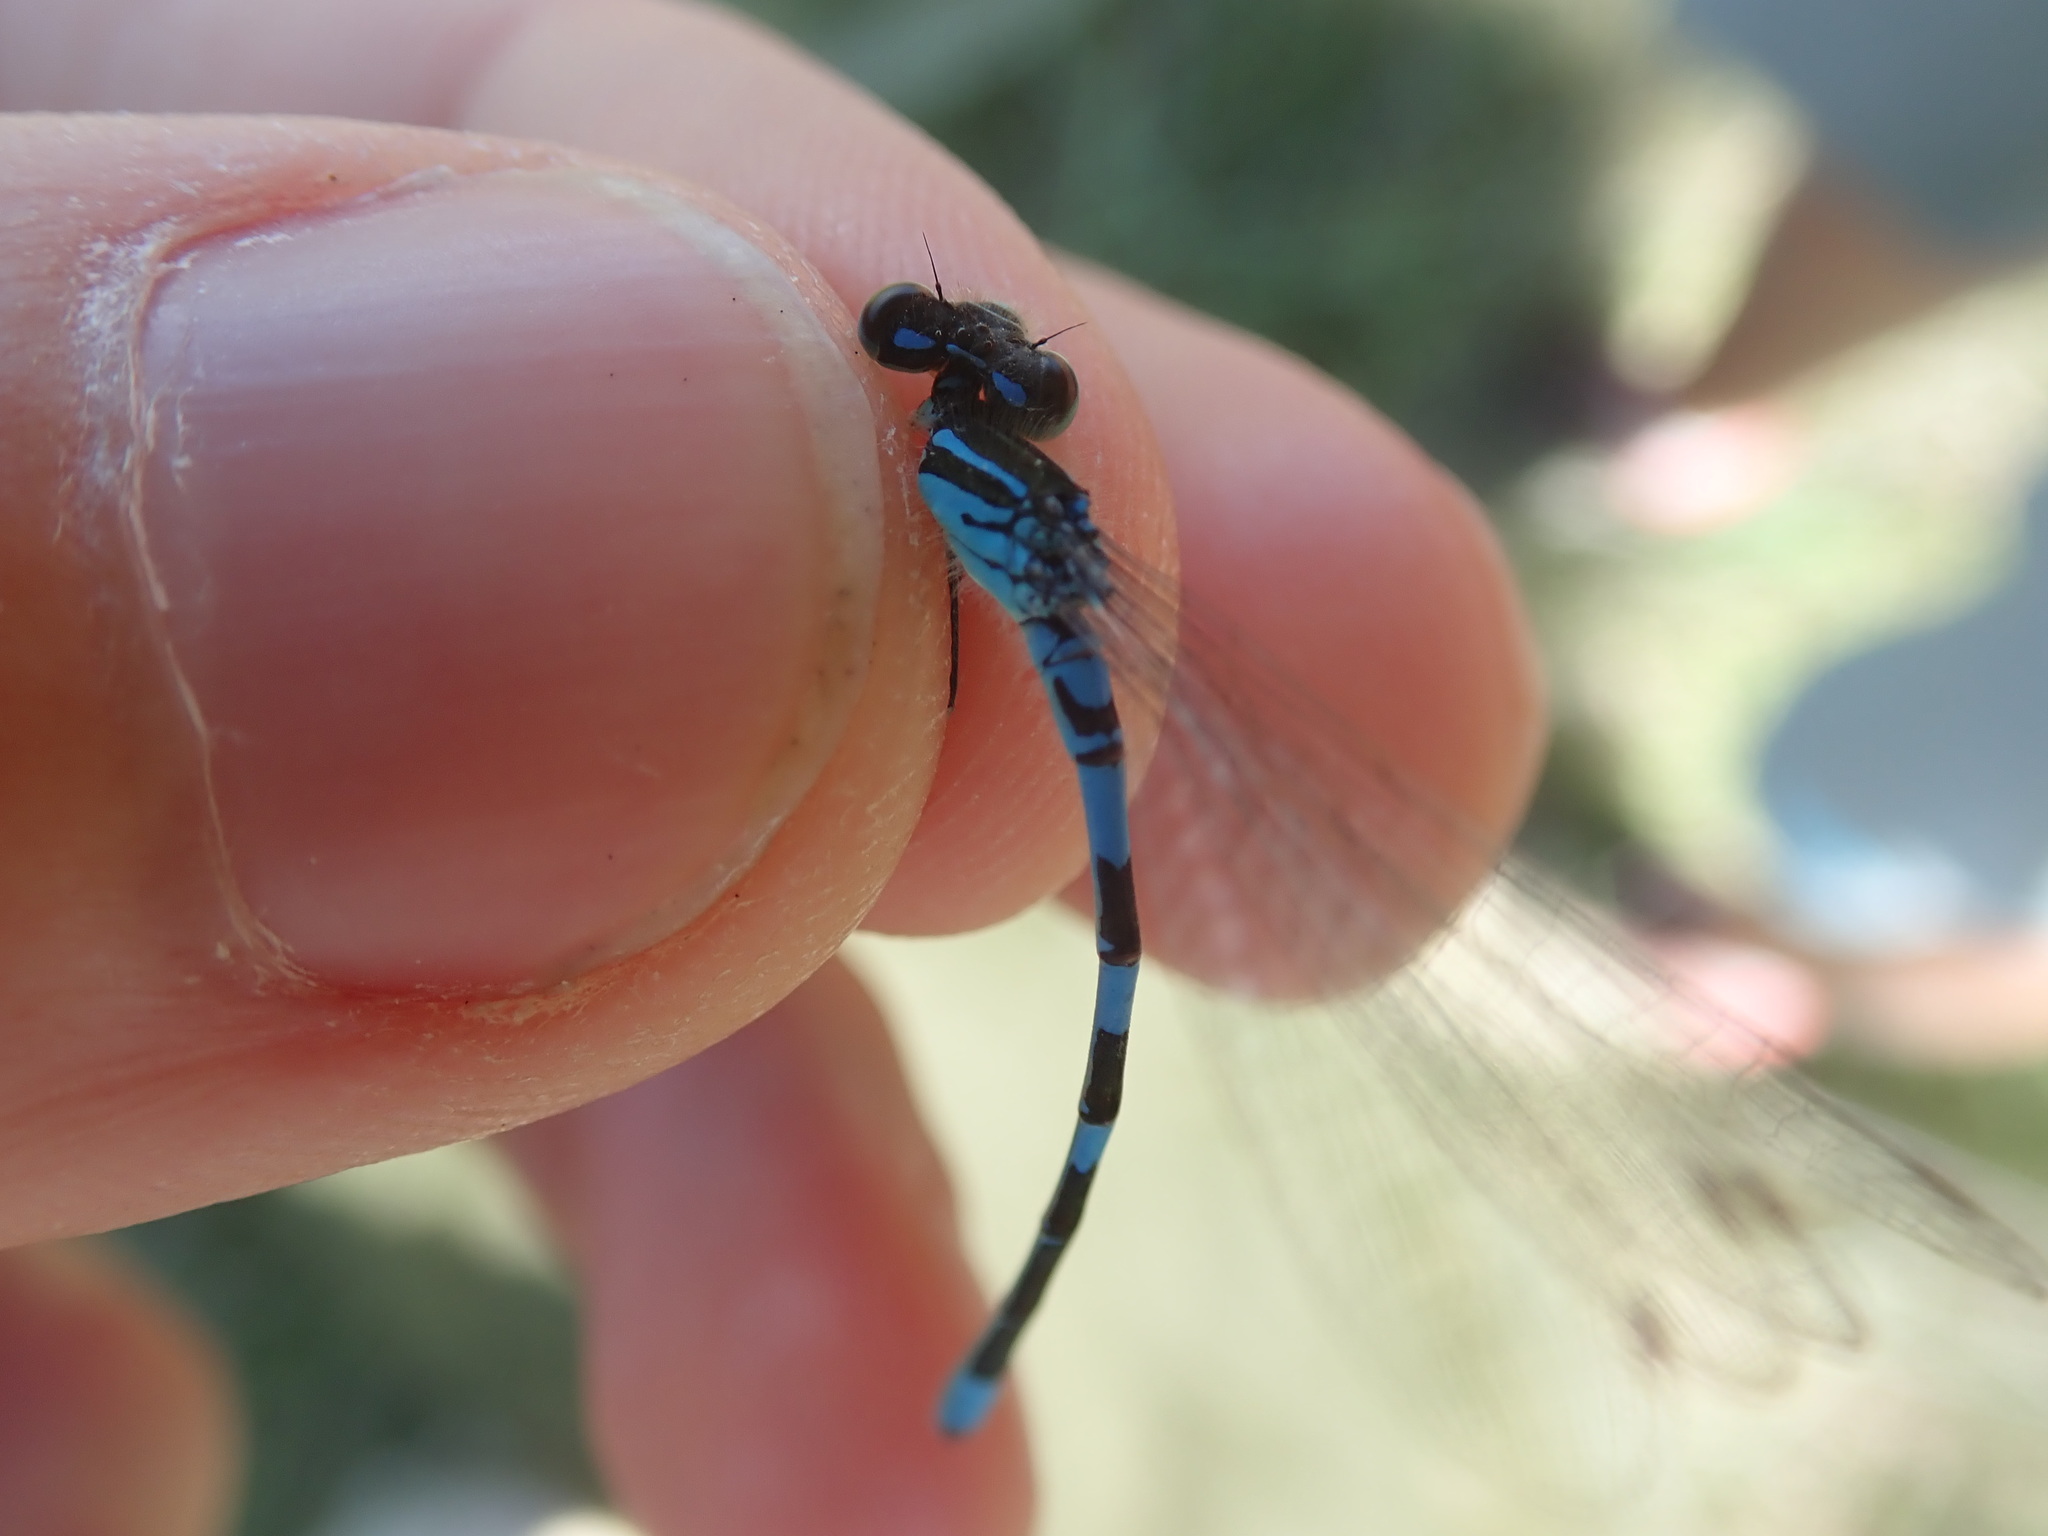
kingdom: Animalia
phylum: Arthropoda
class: Insecta
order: Odonata
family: Coenagrionidae
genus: Coenagrion
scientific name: Coenagrion scitulum
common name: Dainty bluet
